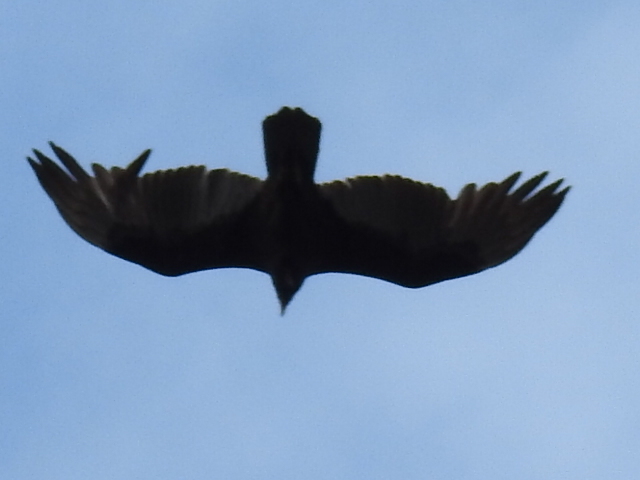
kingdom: Animalia
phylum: Chordata
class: Aves
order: Accipitriformes
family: Cathartidae
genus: Cathartes
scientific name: Cathartes aura
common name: Turkey vulture
